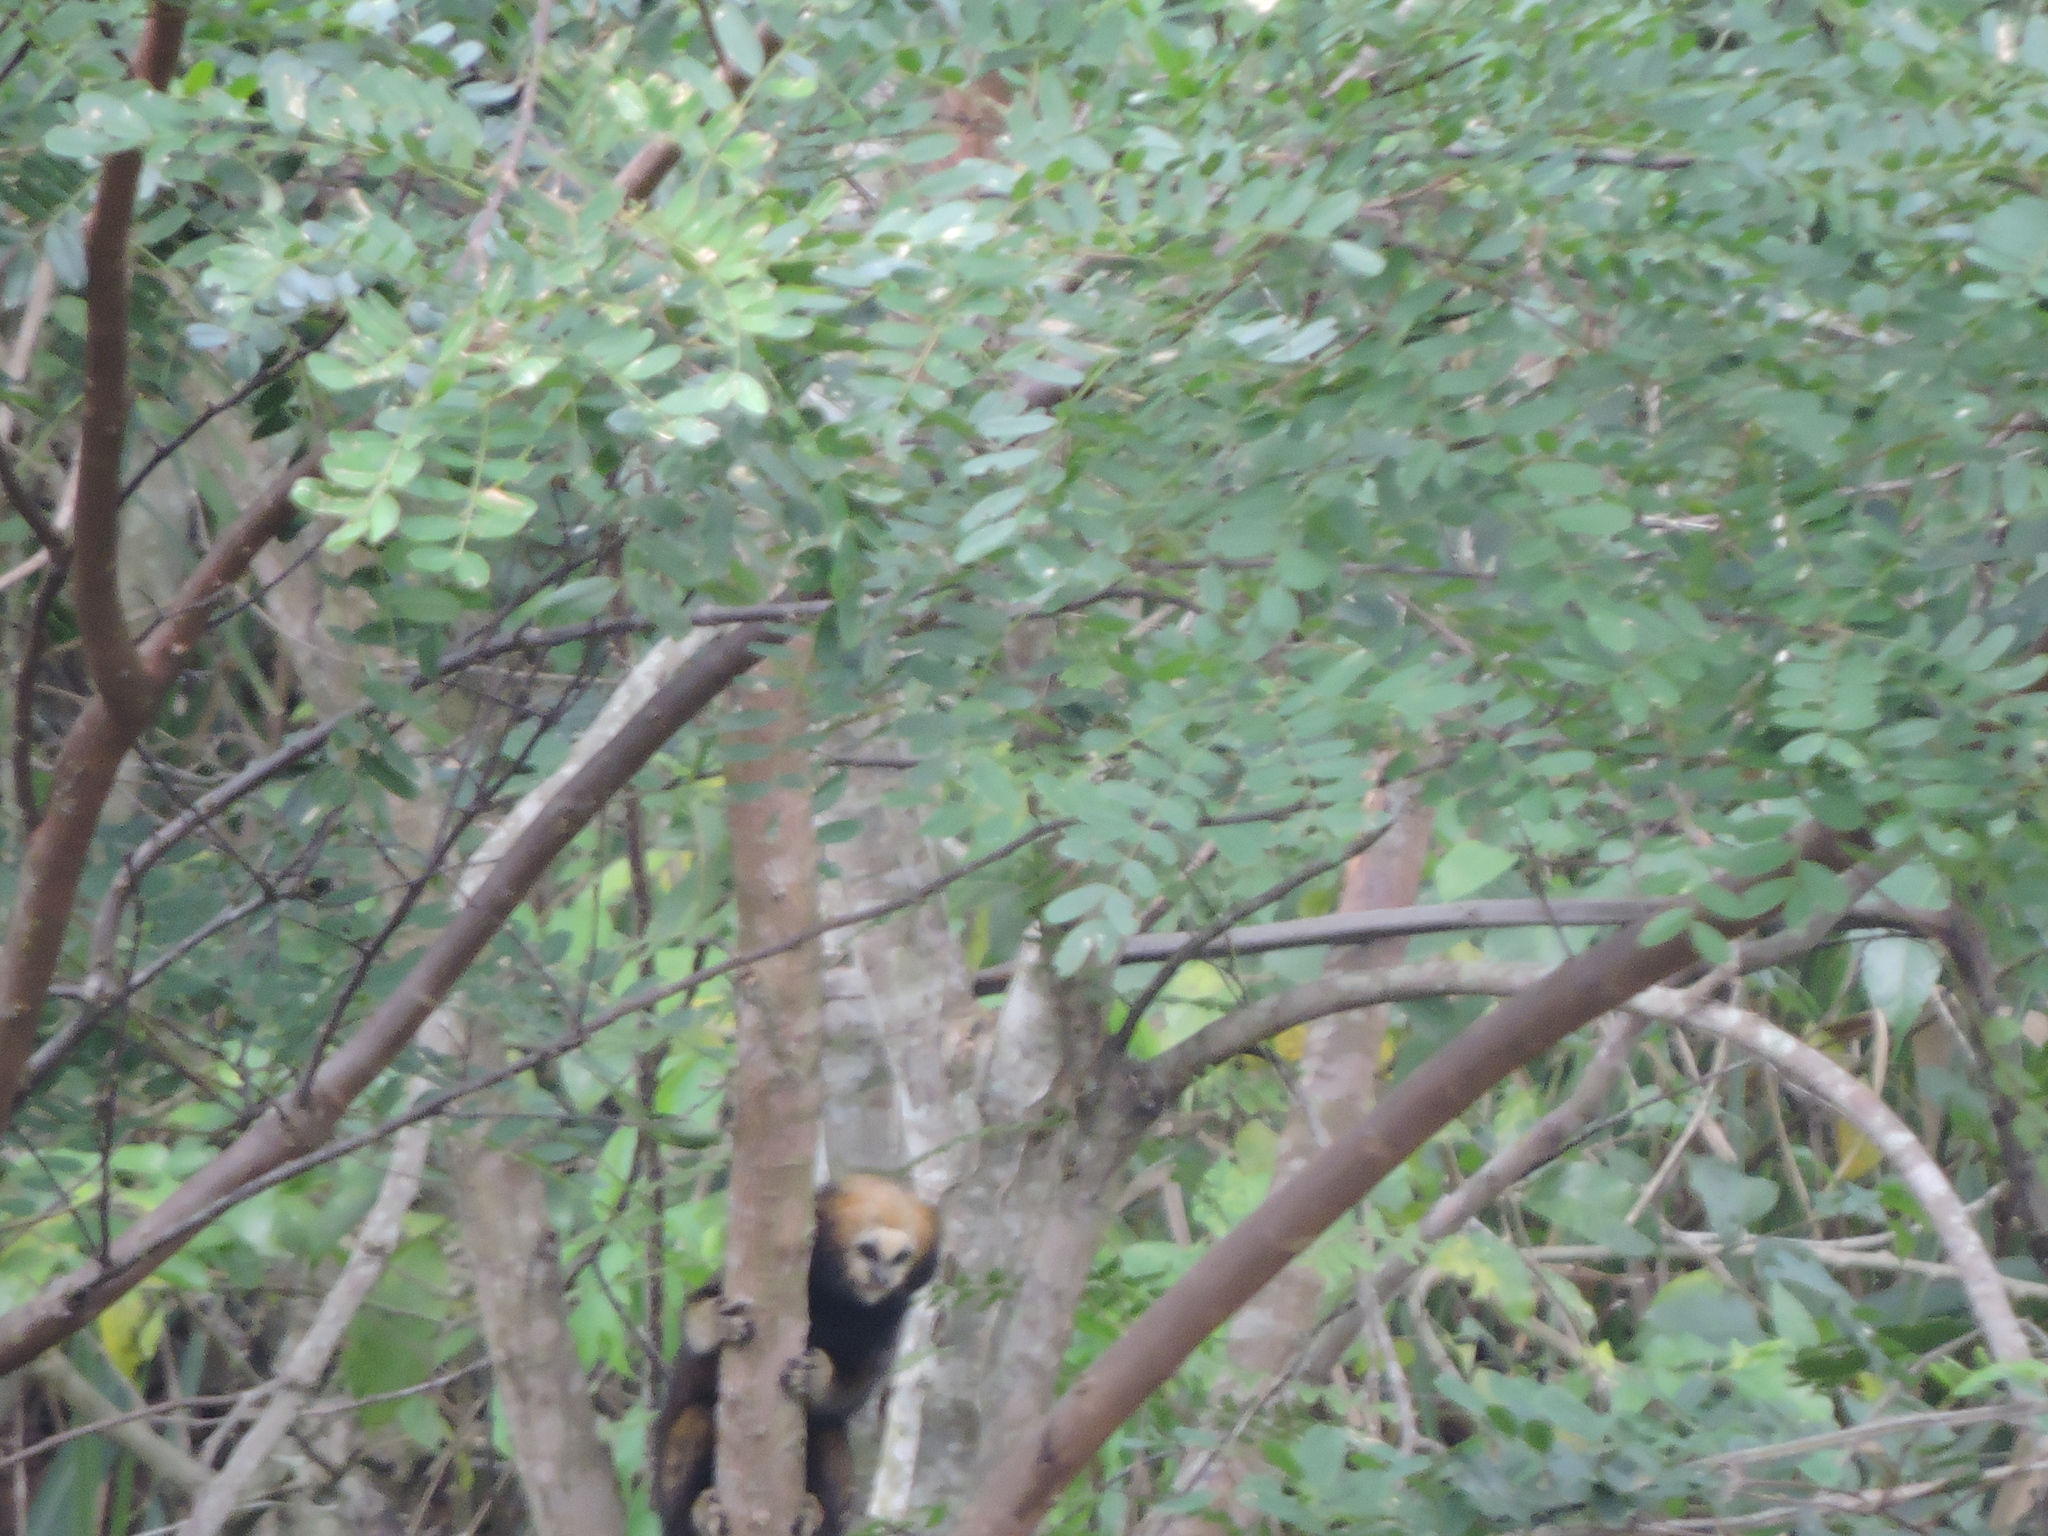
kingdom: Animalia
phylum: Chordata
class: Mammalia
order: Primates
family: Callitrichidae
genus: Callithrix
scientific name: Callithrix flaviceps
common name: Buffy-headed marmoset
